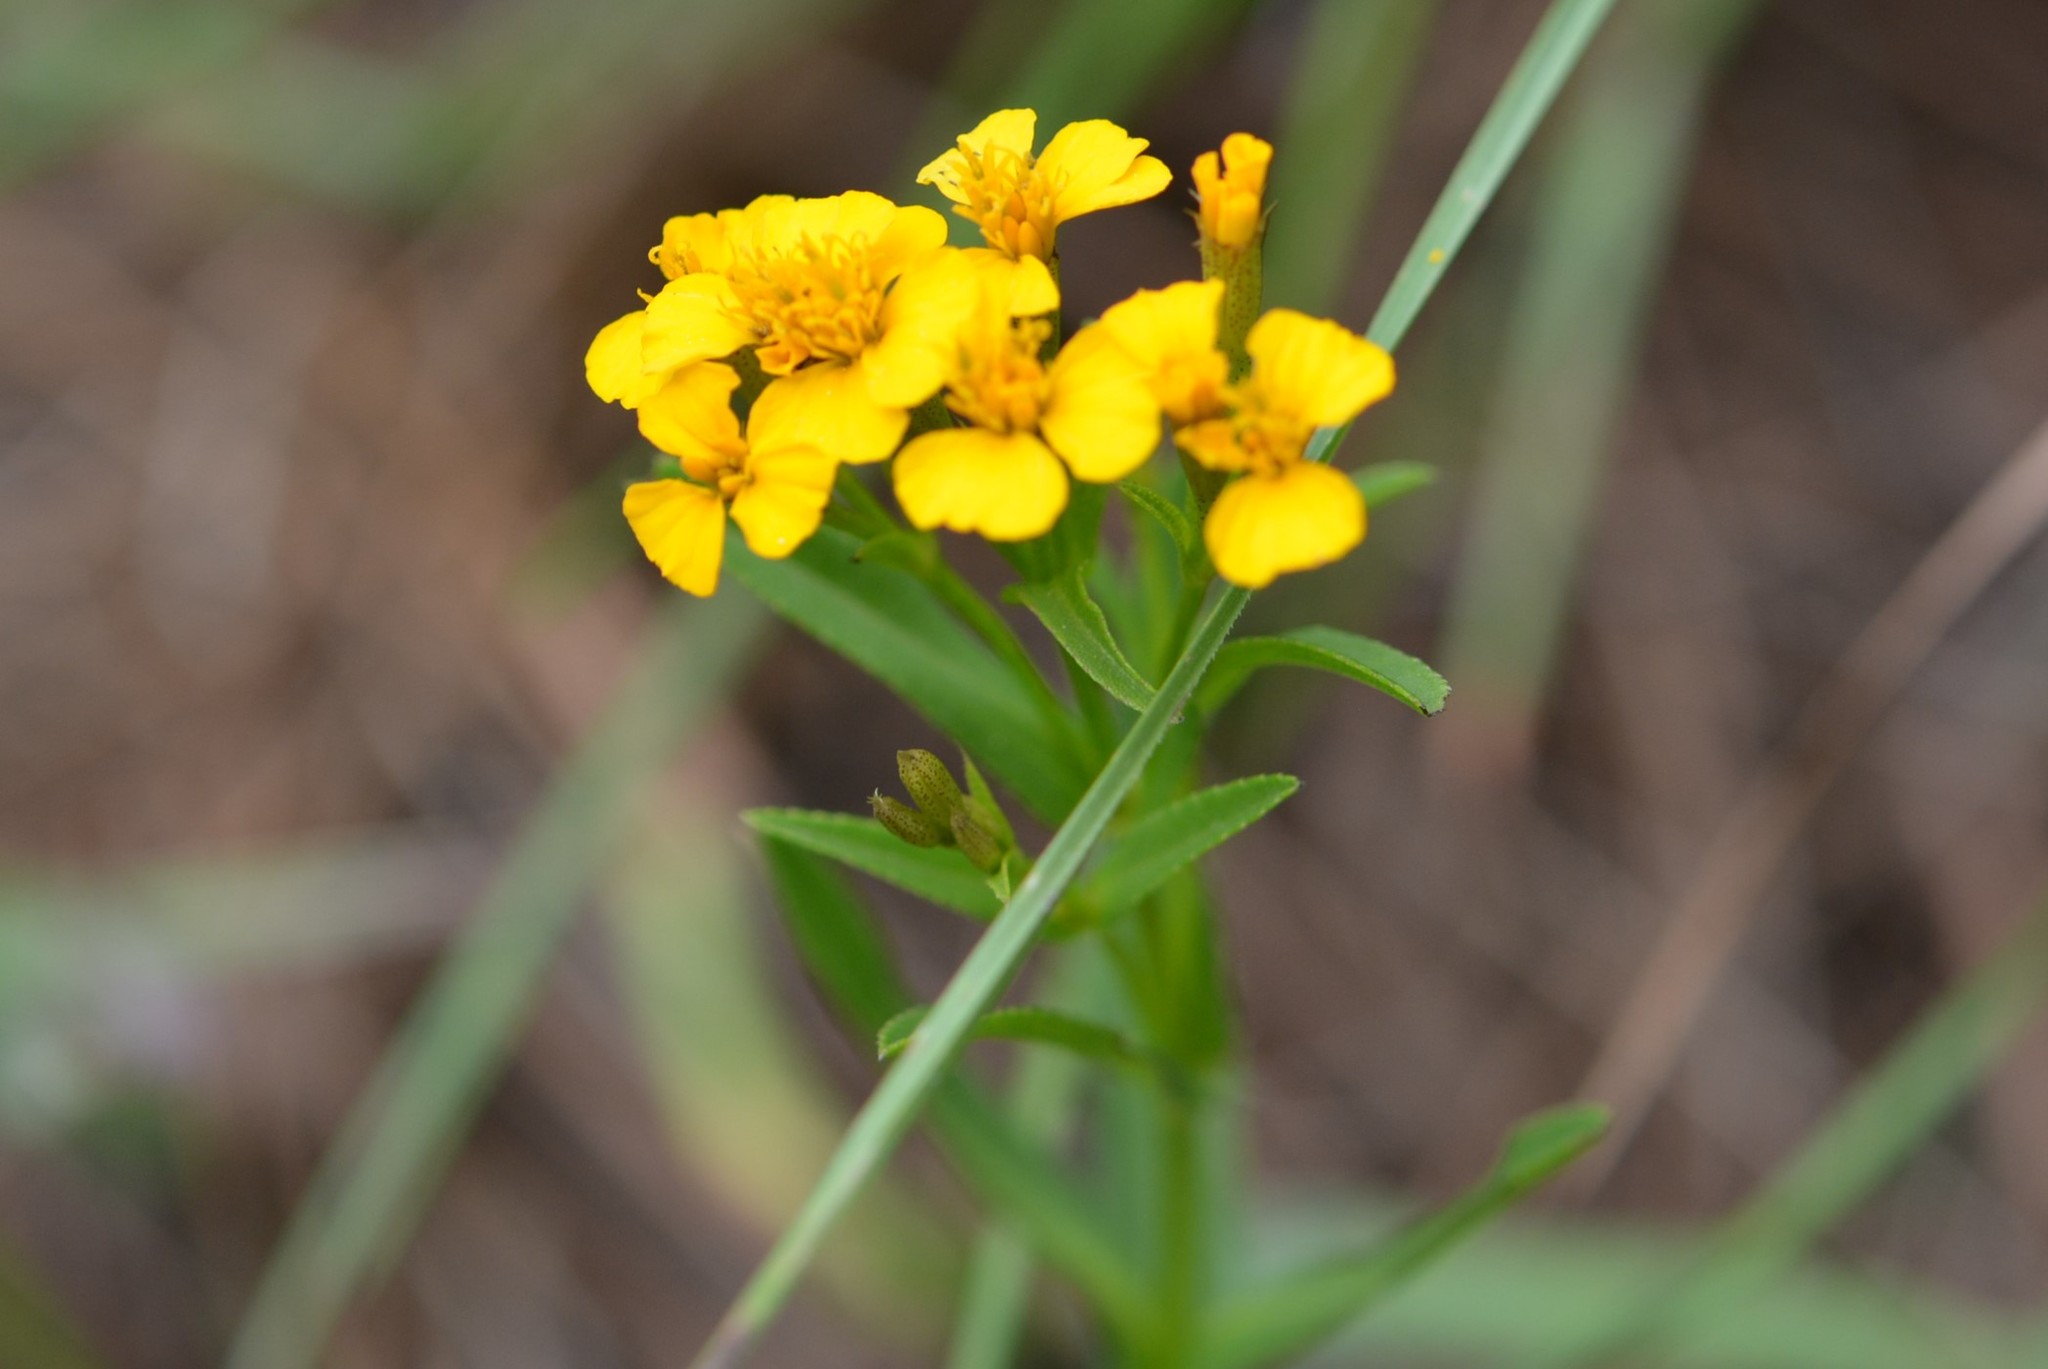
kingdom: Plantae
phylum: Tracheophyta
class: Magnoliopsida
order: Asterales
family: Asteraceae
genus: Tagetes
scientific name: Tagetes lucida
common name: Sweetscented marigold
